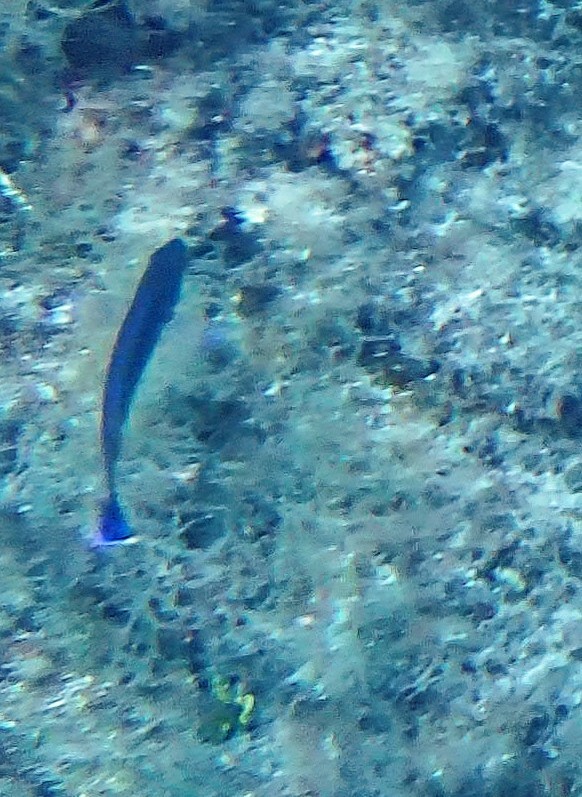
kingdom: Animalia
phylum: Chordata
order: Perciformes
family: Labridae
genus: Centrolabrus
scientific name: Centrolabrus melanocercus
